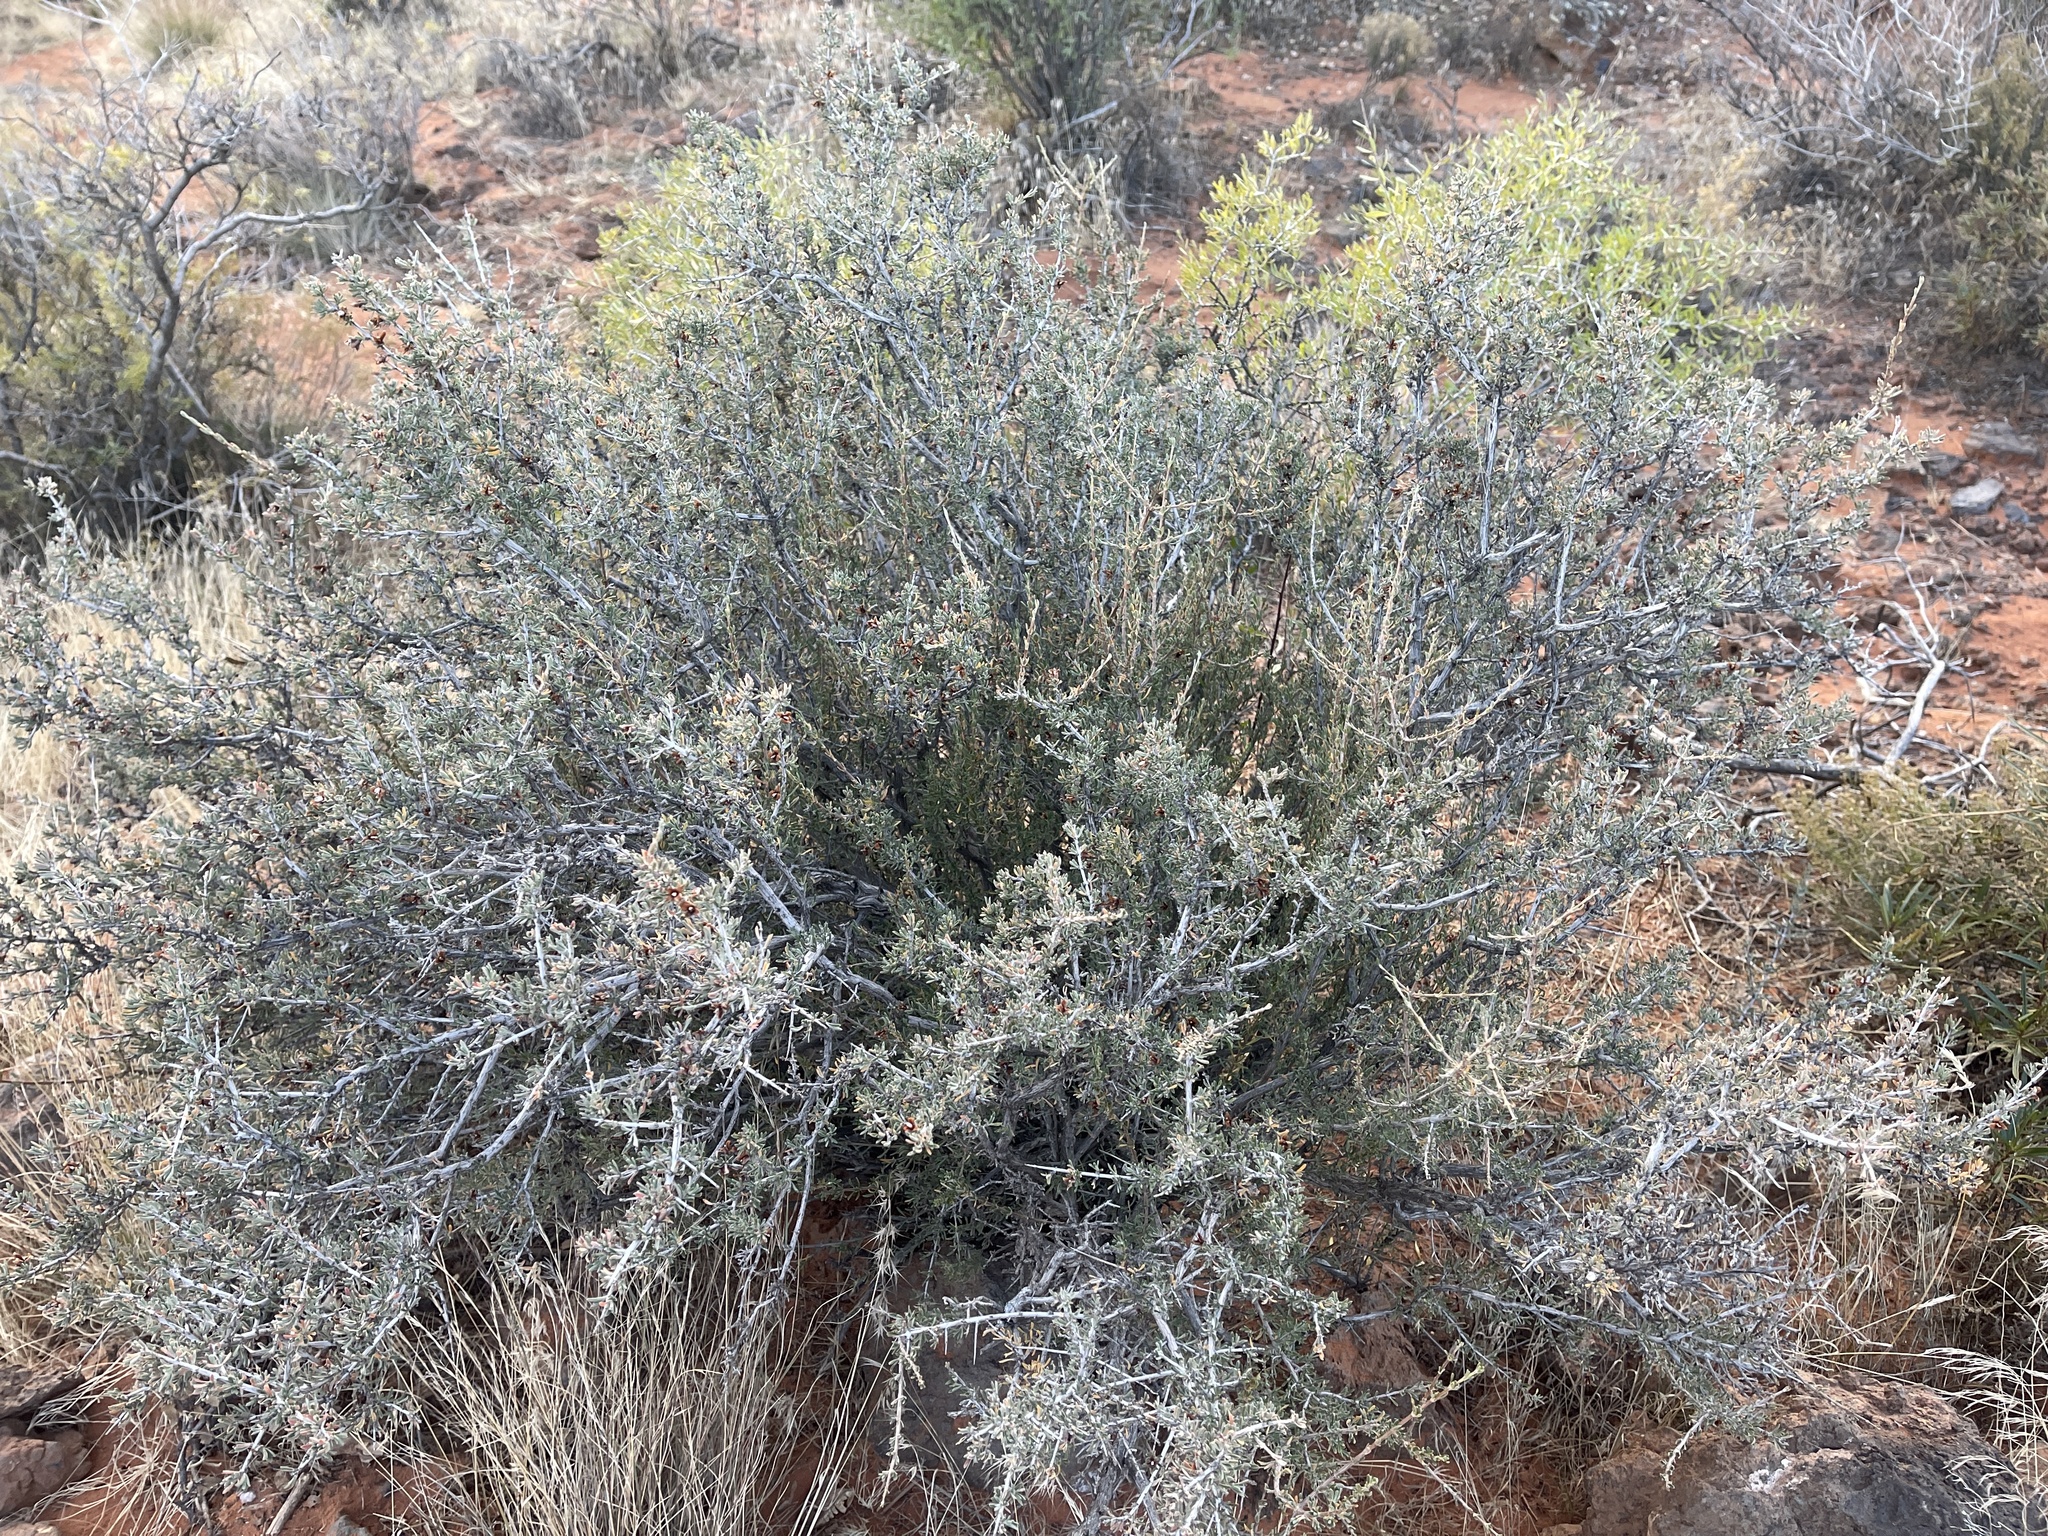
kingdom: Plantae
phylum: Tracheophyta
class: Magnoliopsida
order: Rosales
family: Rosaceae
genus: Coleogyne
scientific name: Coleogyne ramosissima
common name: Blackbrush
